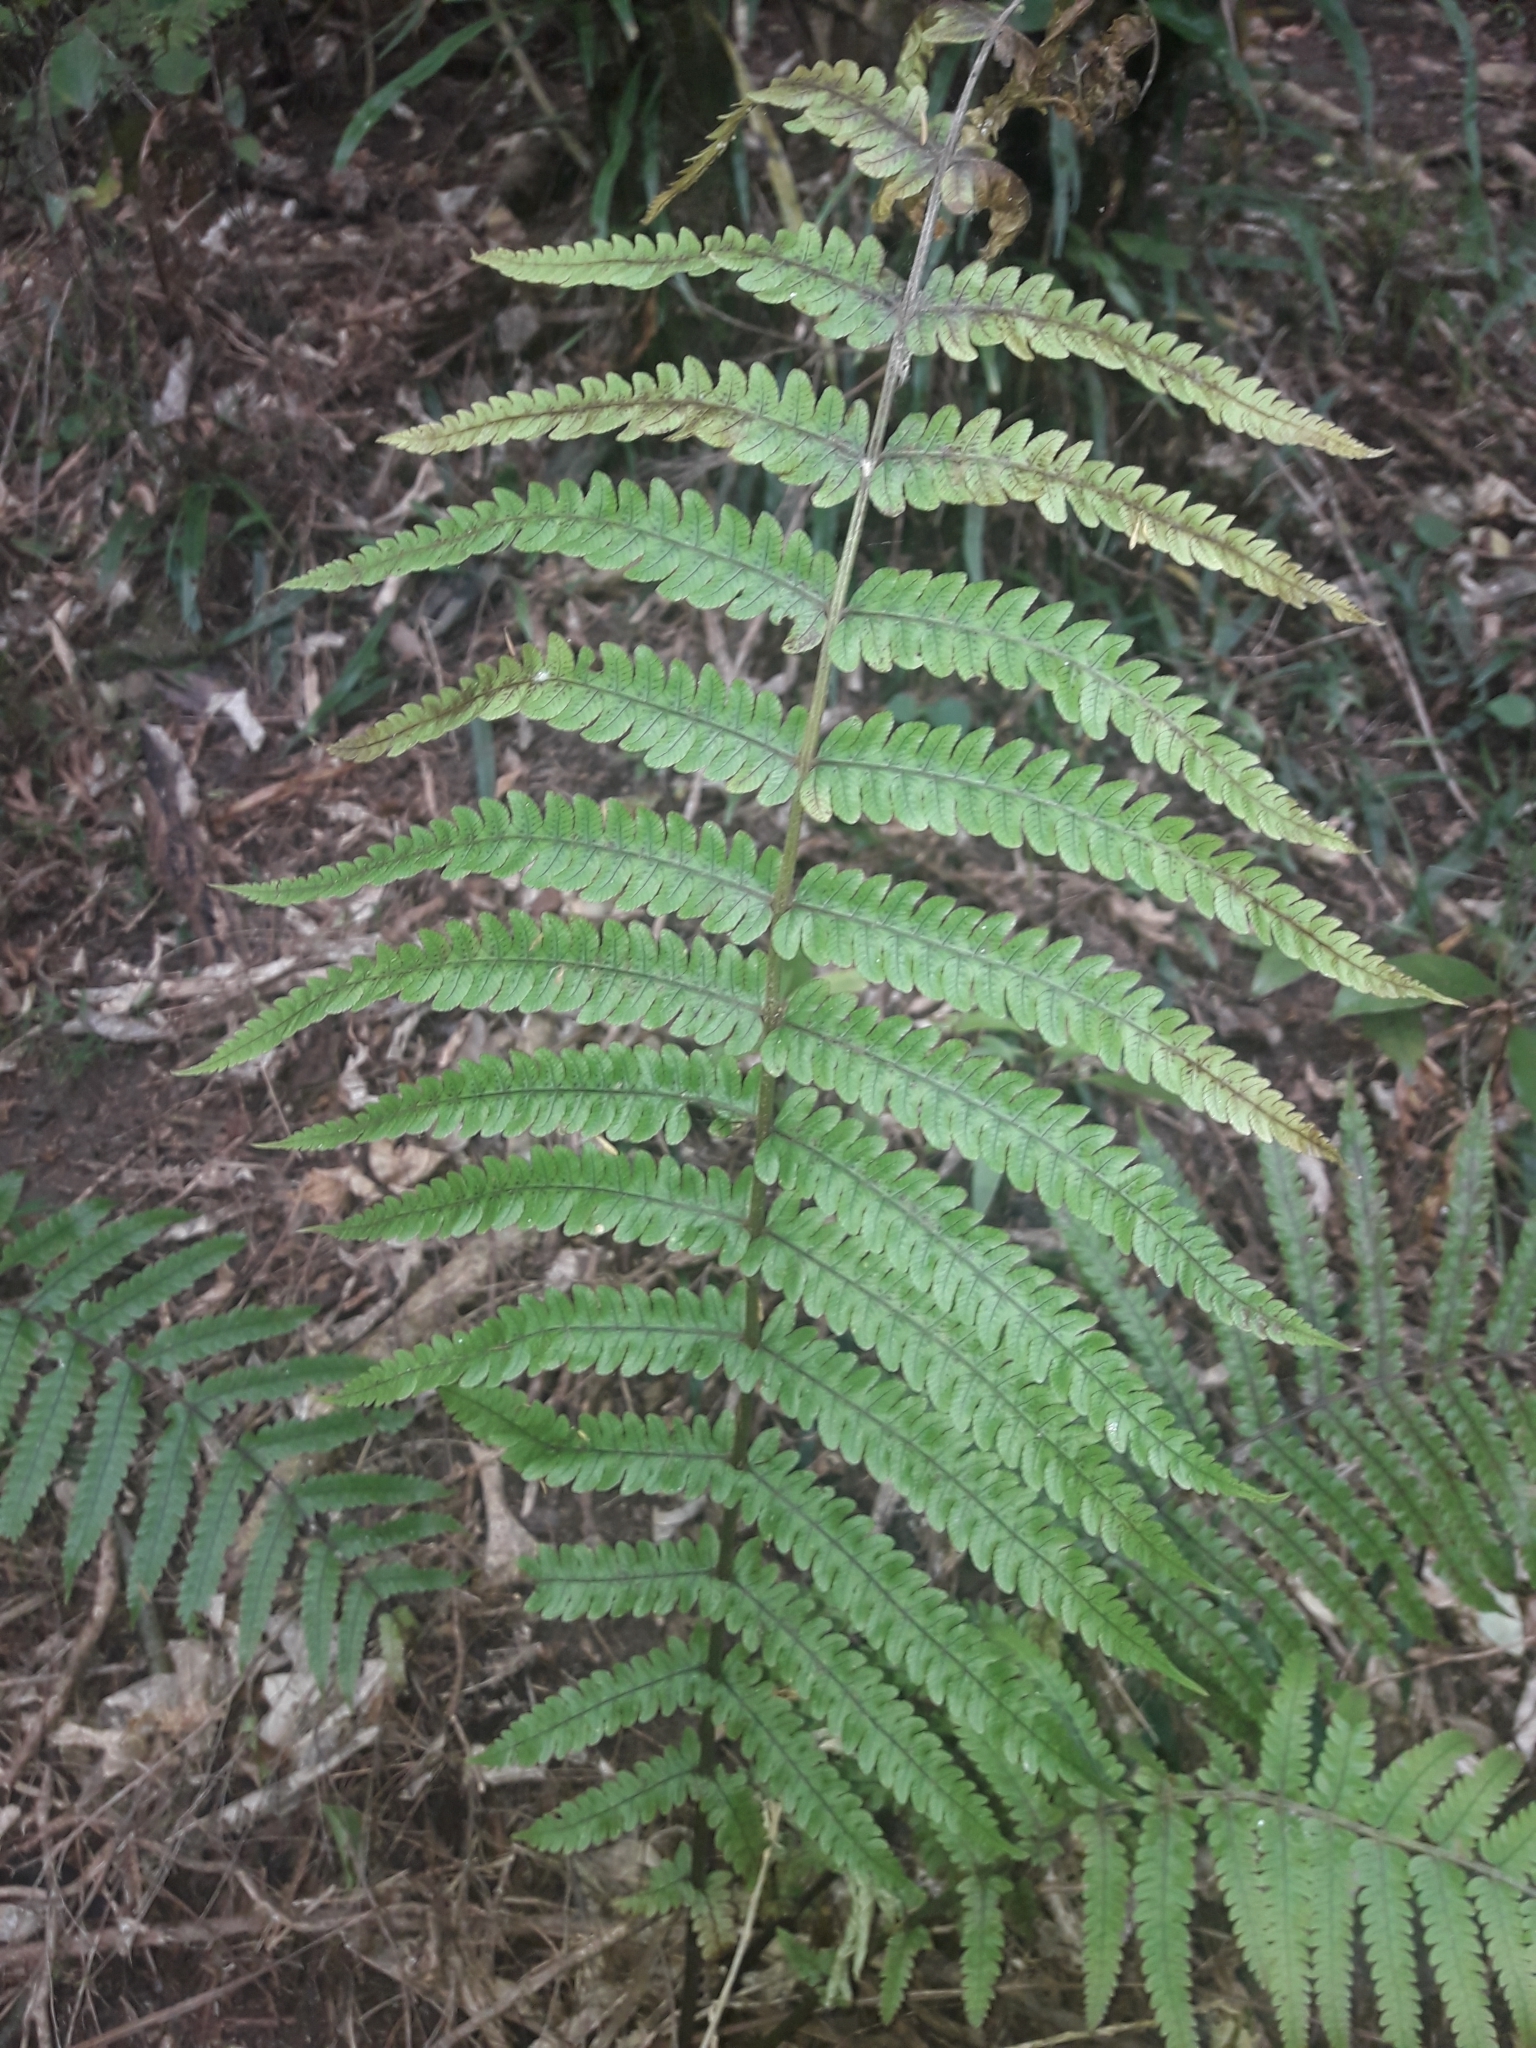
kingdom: Plantae
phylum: Tracheophyta
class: Polypodiopsida
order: Polypodiales
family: Thelypteridaceae
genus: Pakau
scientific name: Pakau pennigera
